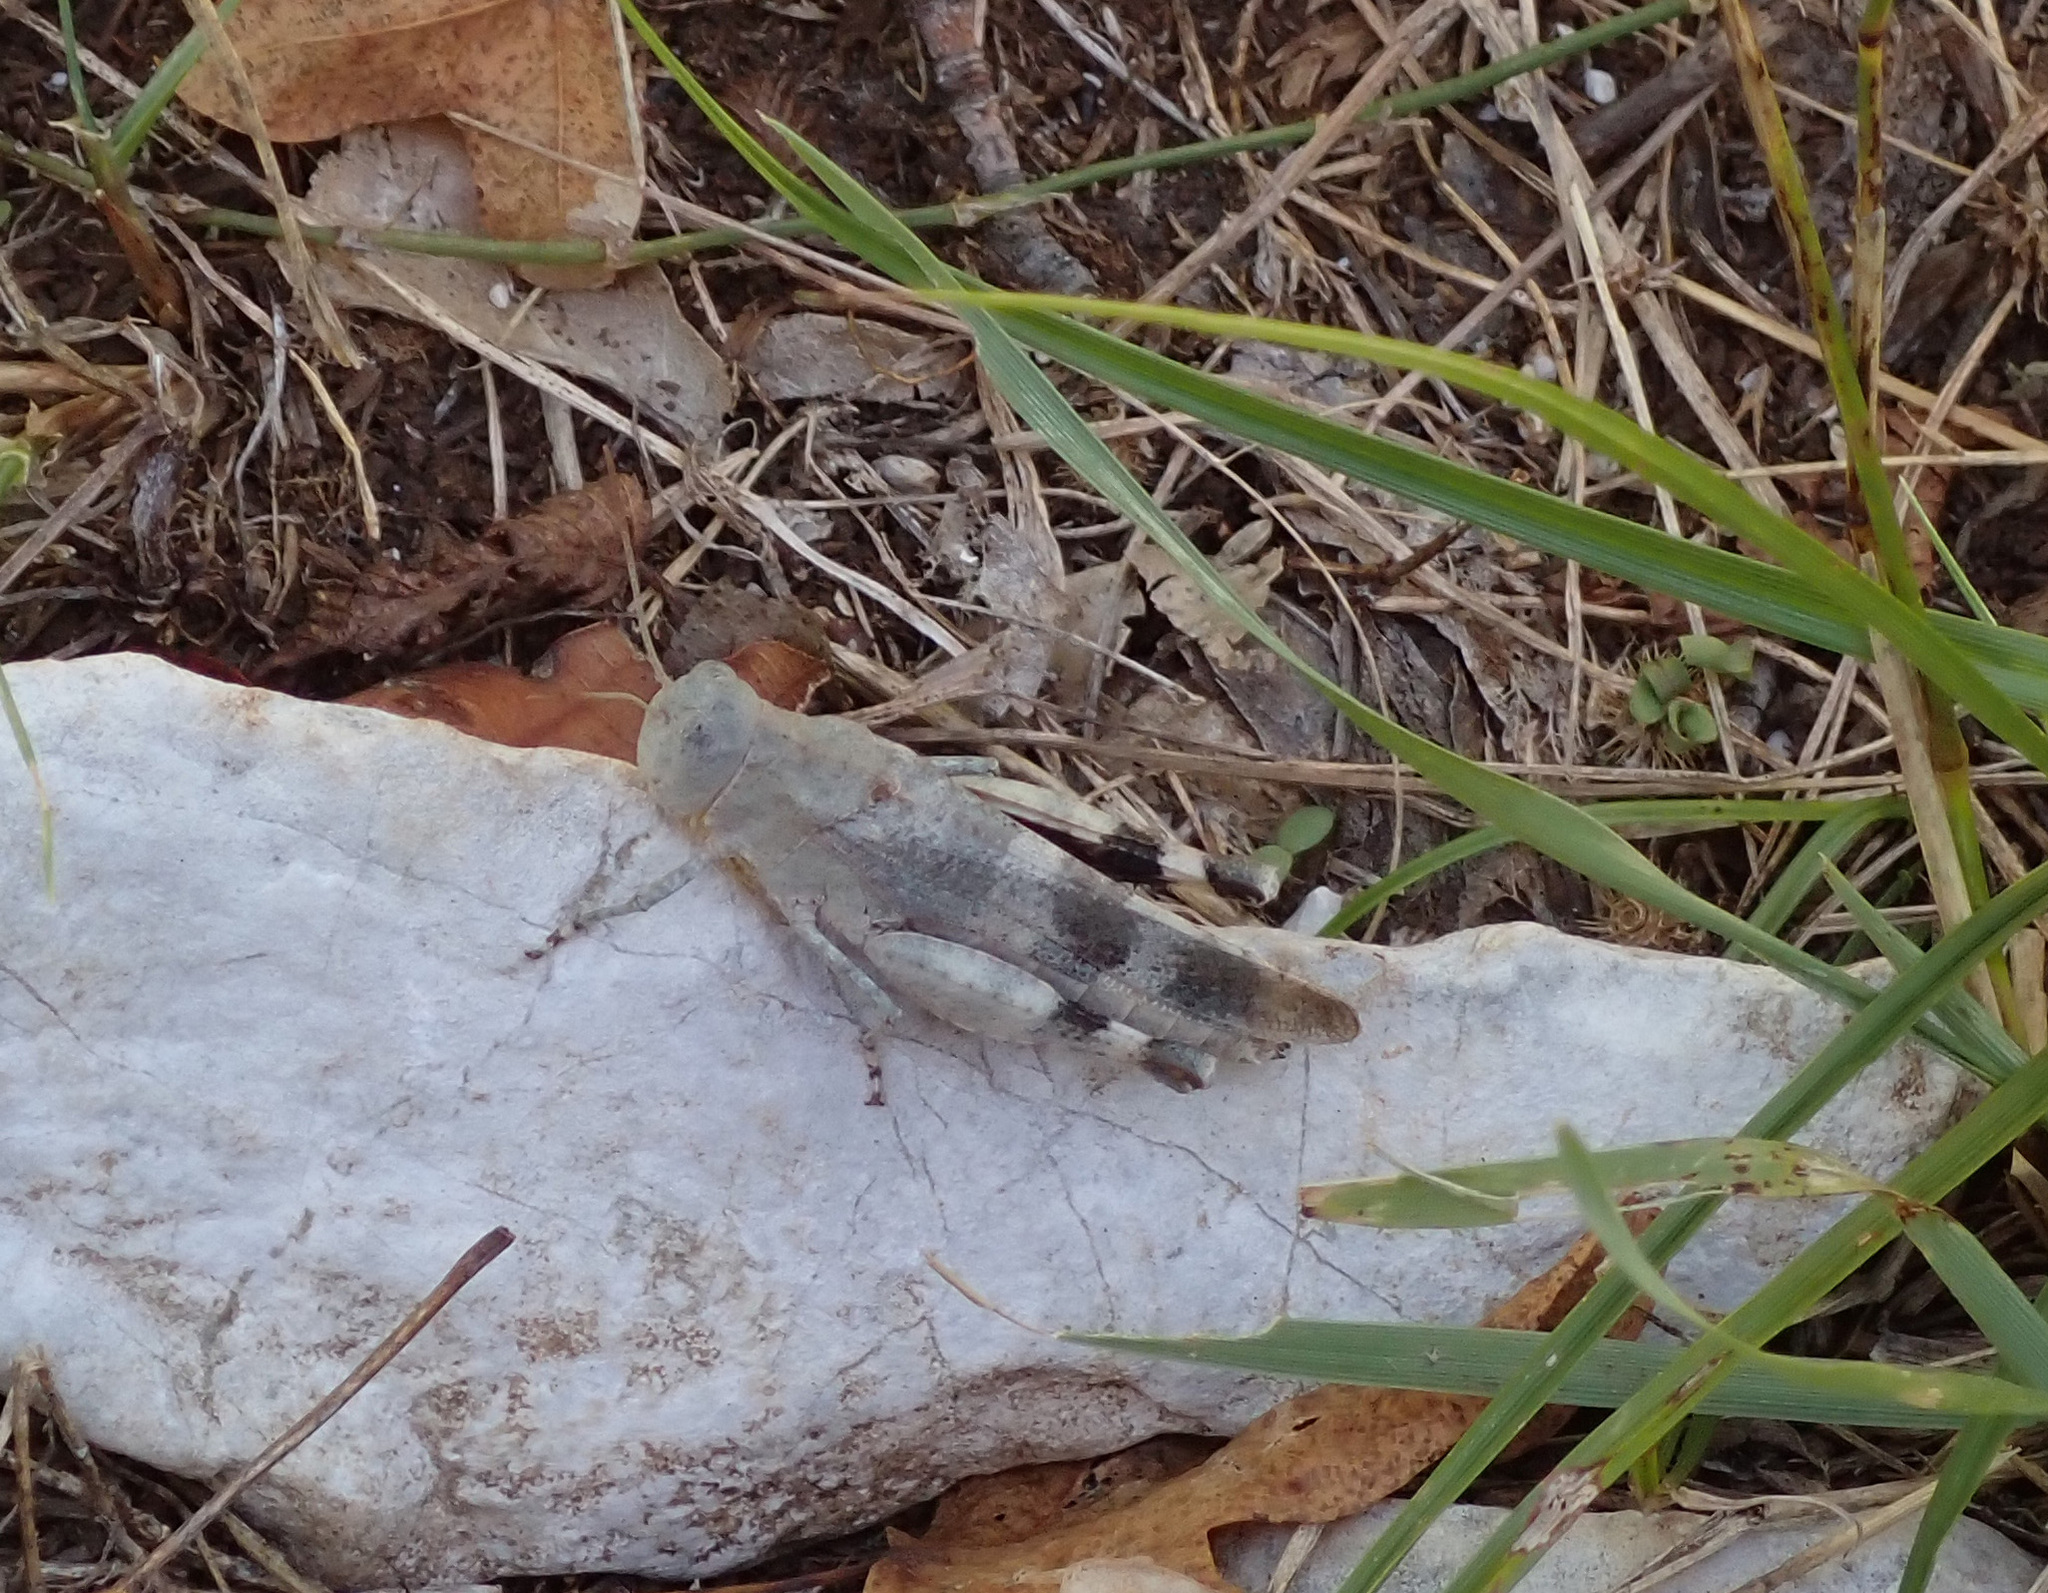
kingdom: Animalia
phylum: Arthropoda
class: Insecta
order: Orthoptera
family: Acrididae
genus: Oedipoda
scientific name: Oedipoda germanica
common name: Red band-winged grasshopper
